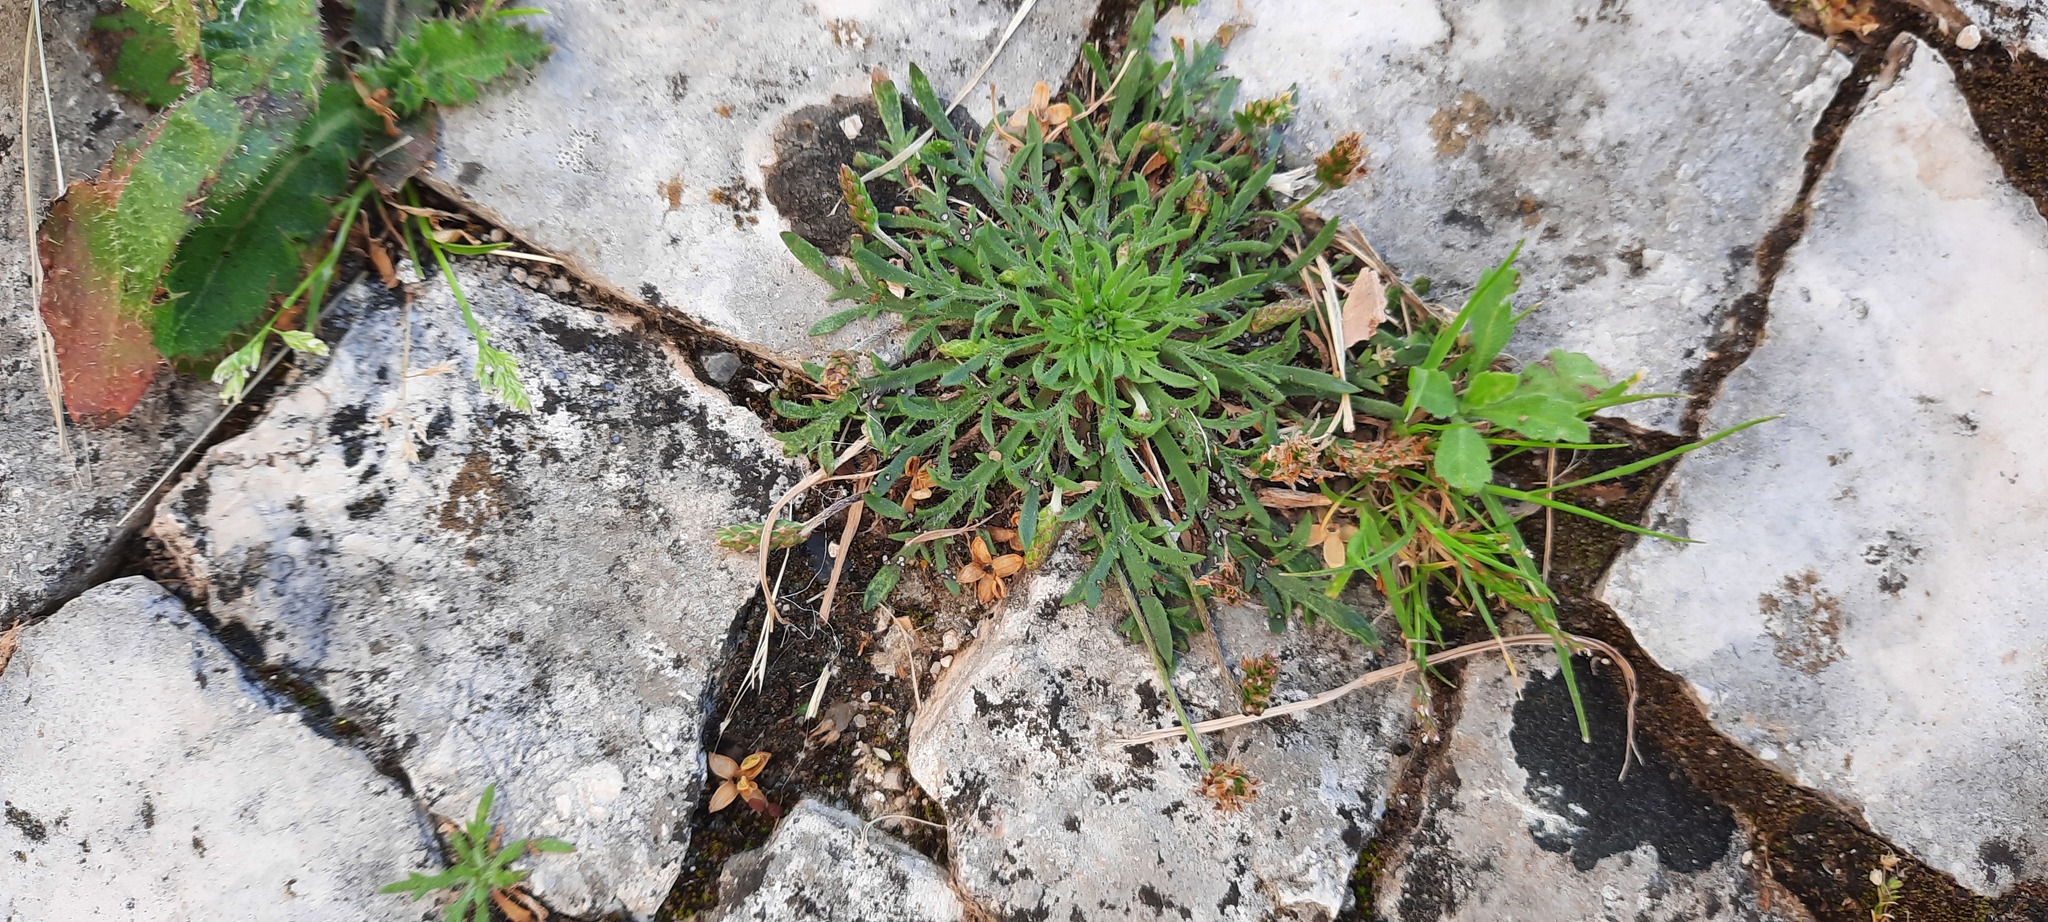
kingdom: Plantae
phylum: Tracheophyta
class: Magnoliopsida
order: Lamiales
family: Plantaginaceae
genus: Plantago
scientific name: Plantago coronopus
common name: Buck's-horn plantain
